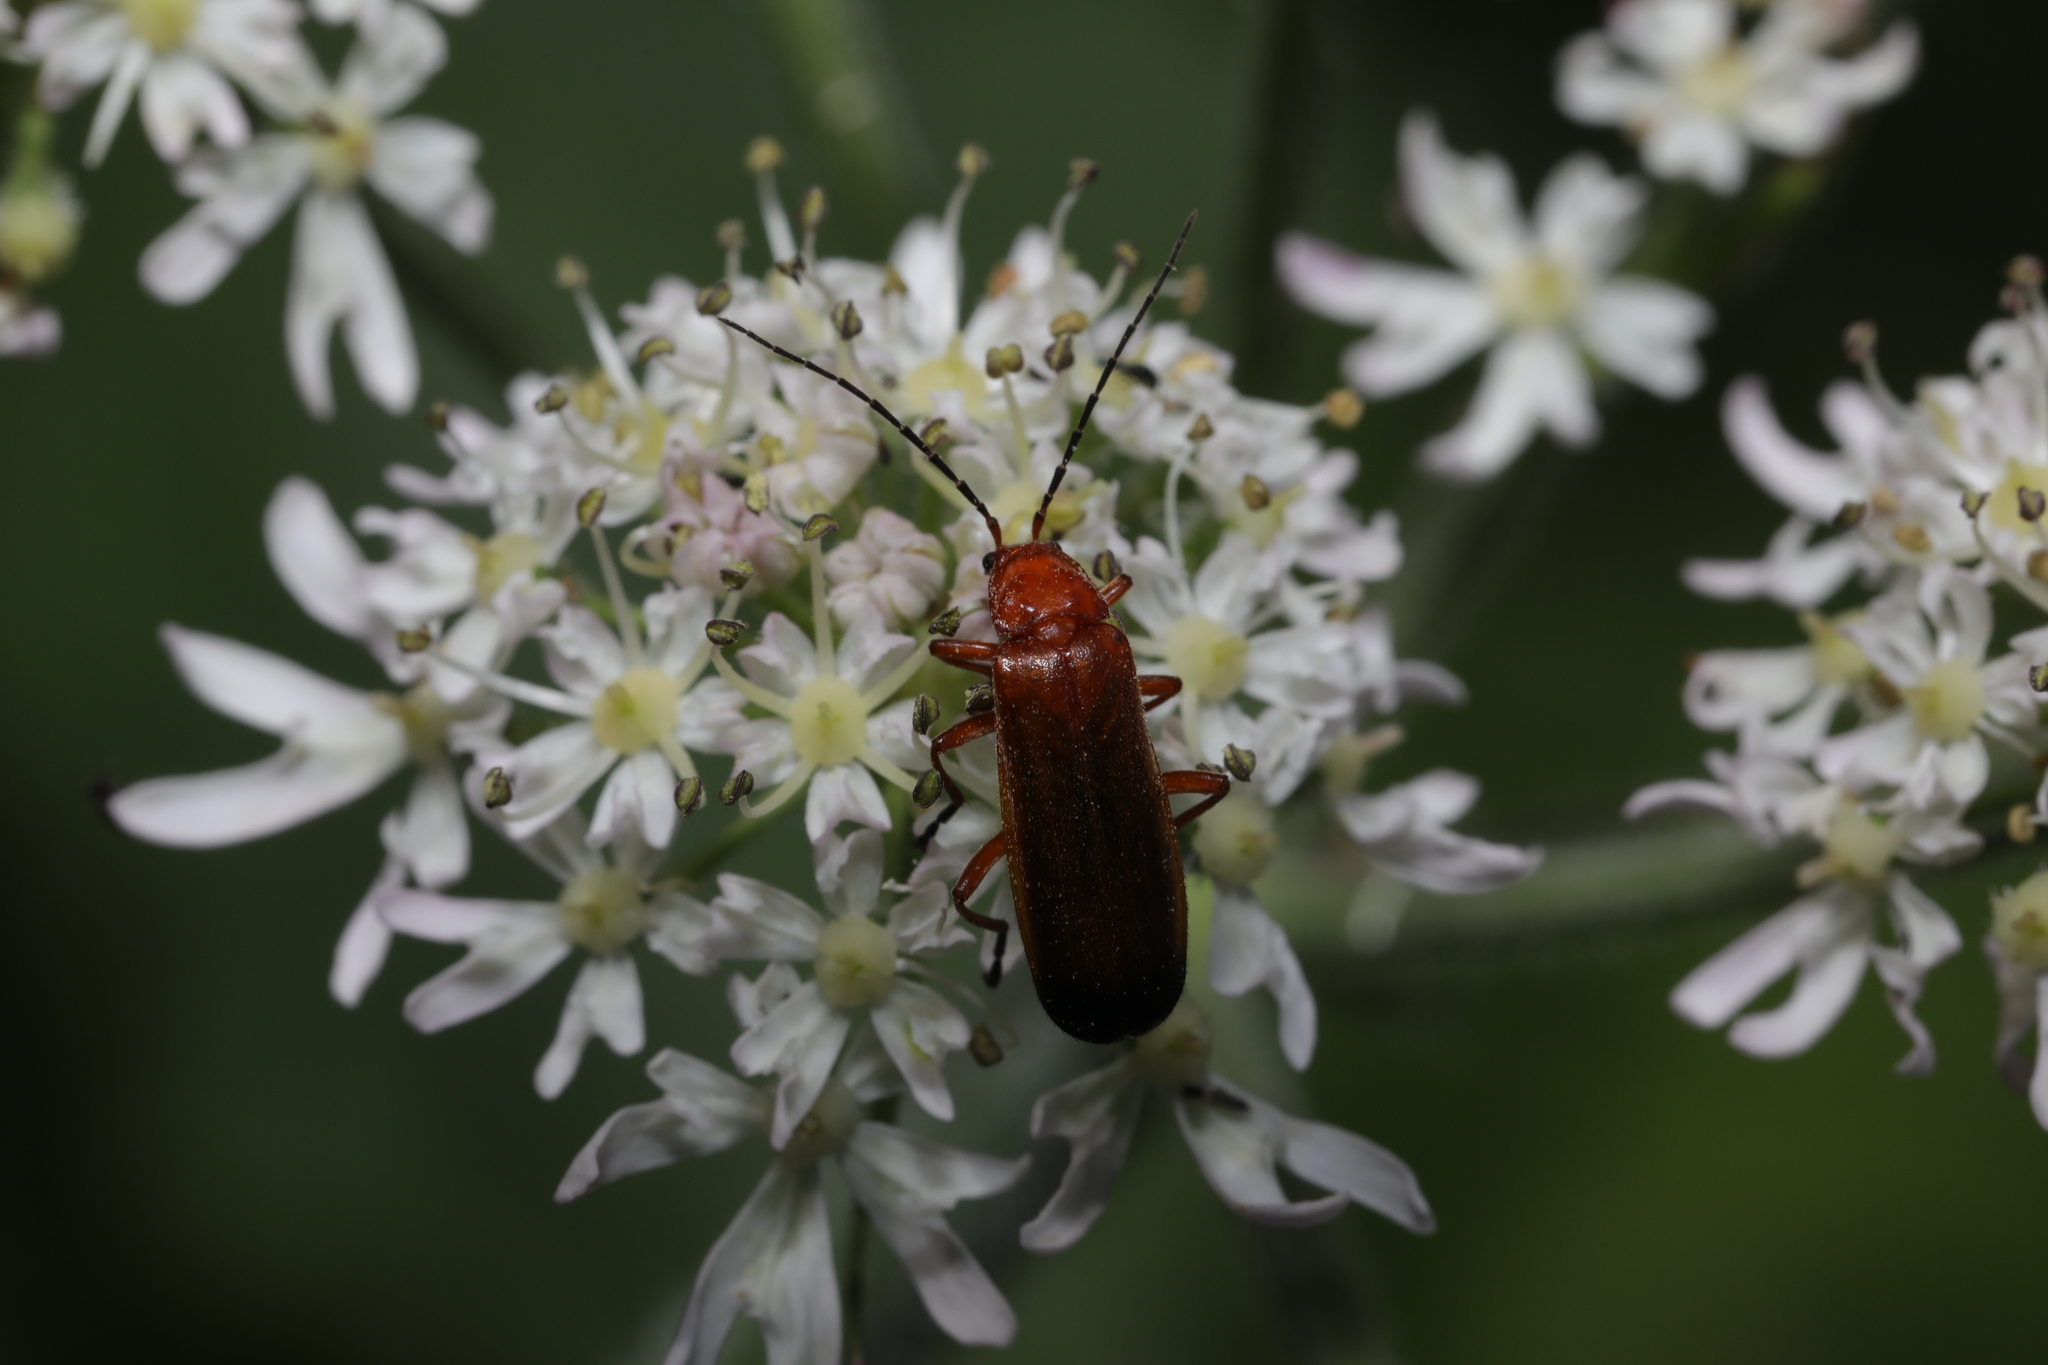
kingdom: Animalia
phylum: Arthropoda
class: Insecta
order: Coleoptera
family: Cantharidae
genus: Rhagonycha
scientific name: Rhagonycha fulva
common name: Common red soldier beetle
